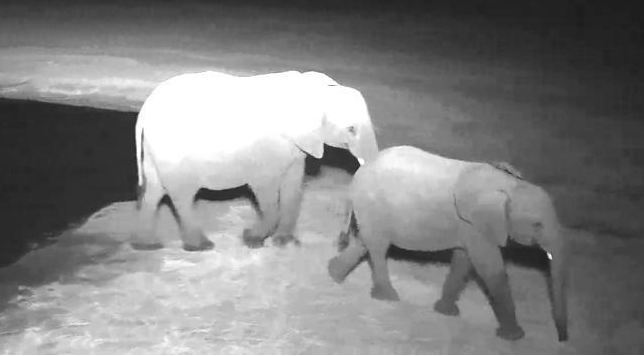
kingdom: Animalia
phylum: Chordata
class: Mammalia
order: Proboscidea
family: Elephantidae
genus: Loxodonta
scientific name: Loxodonta africana
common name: African elephant
